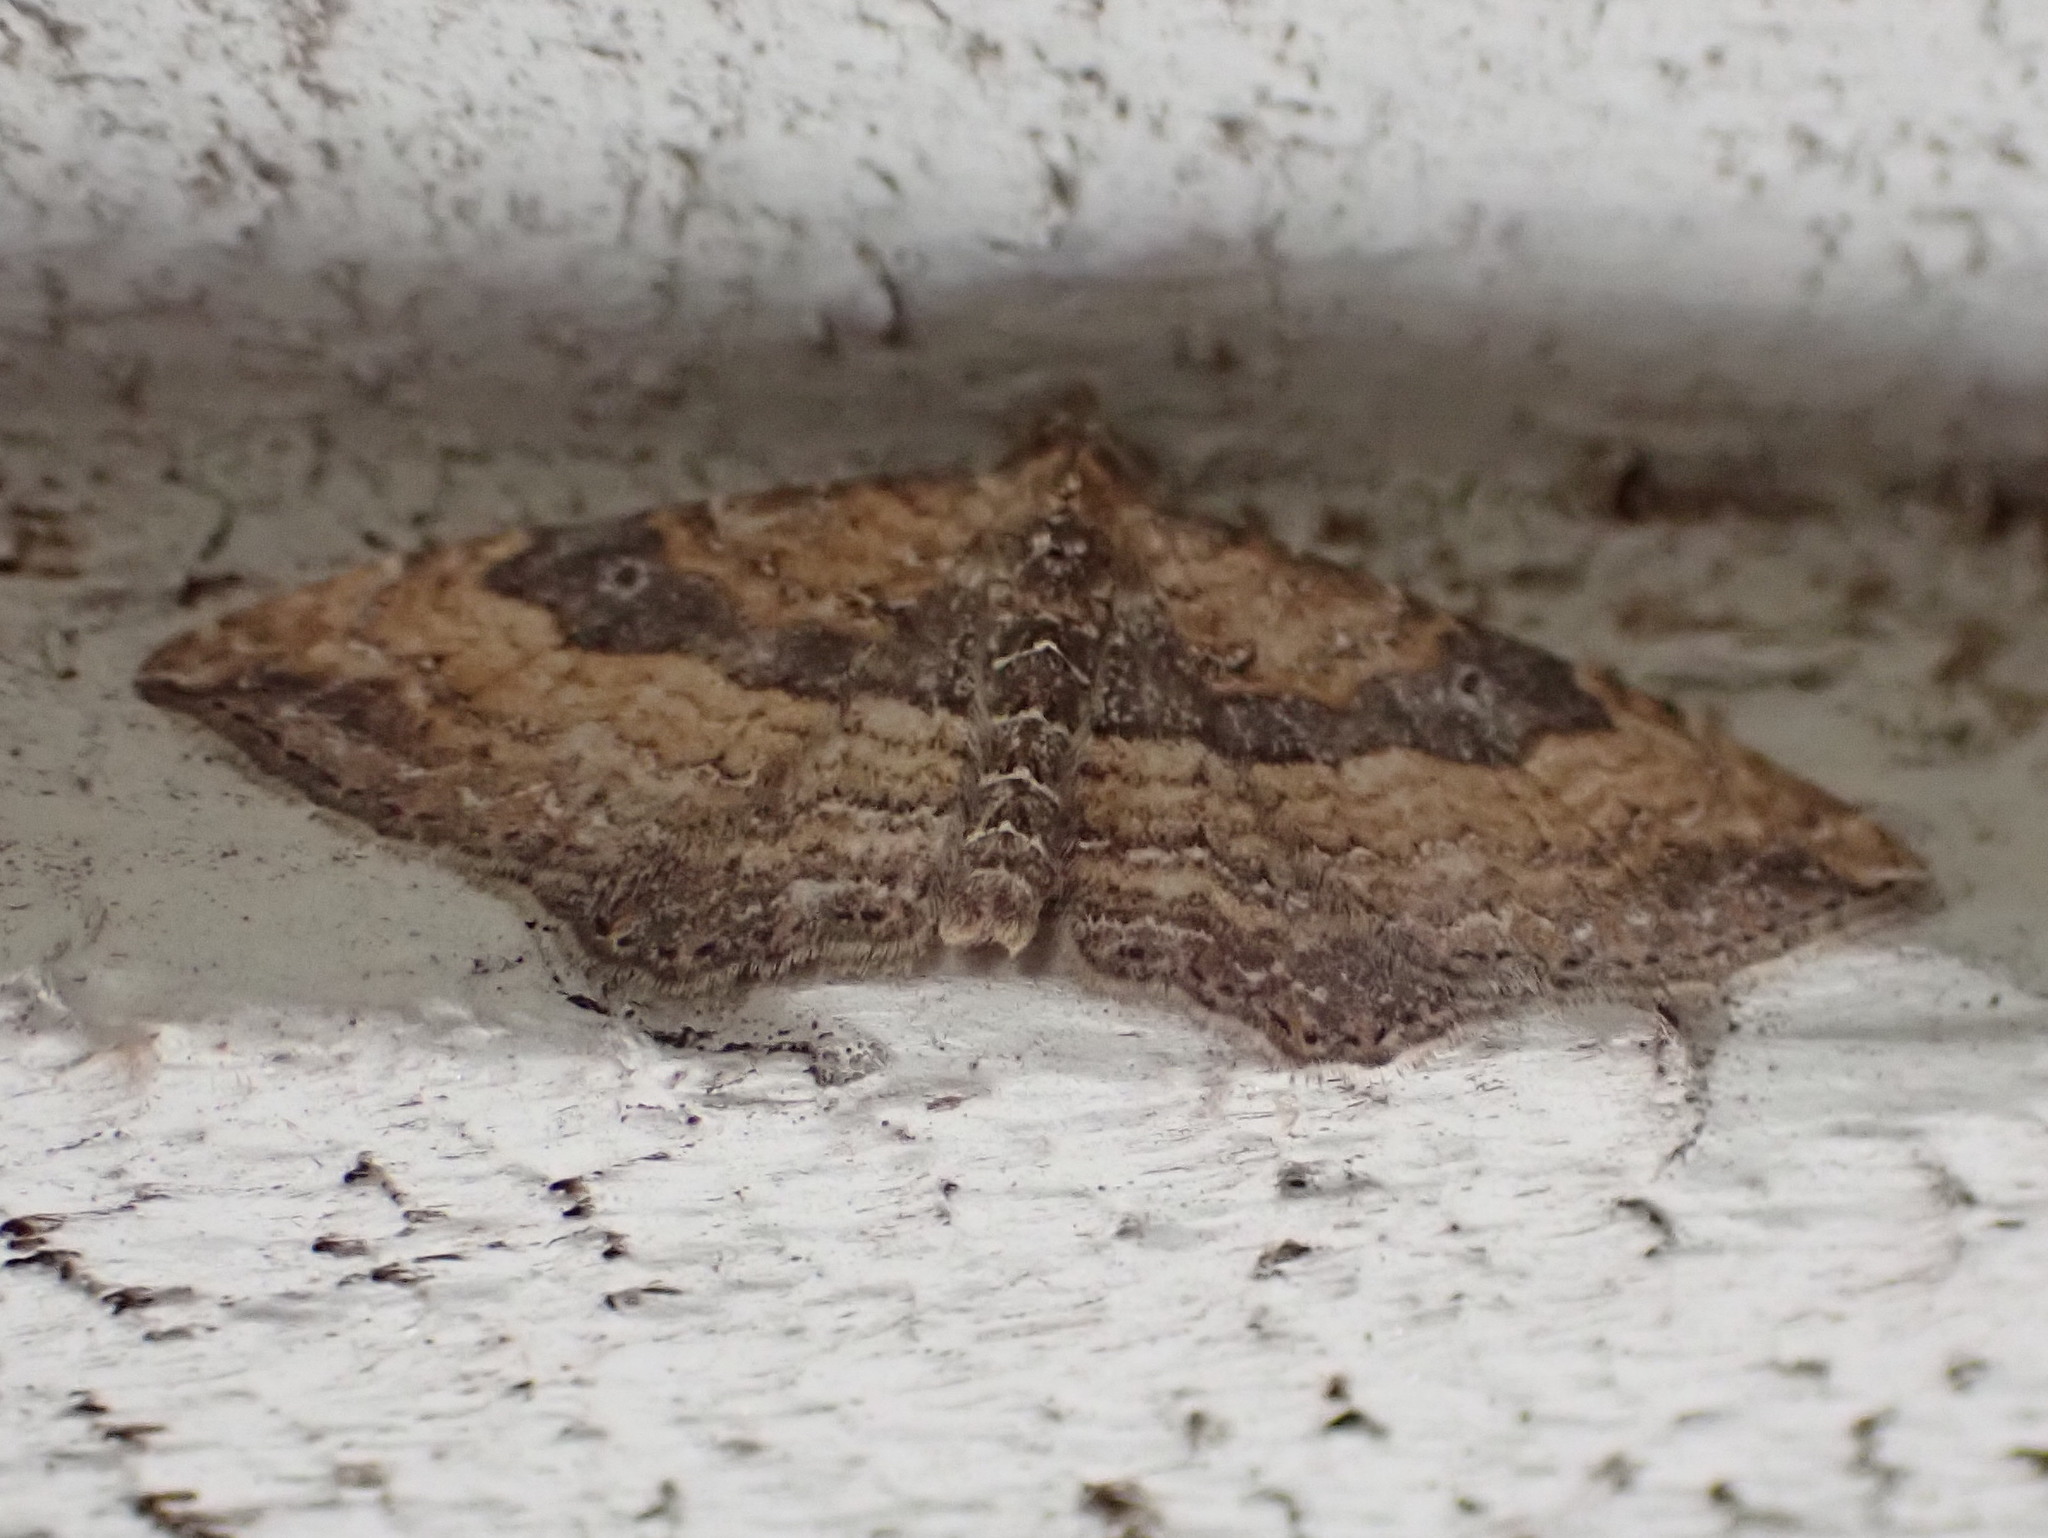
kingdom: Animalia
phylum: Arthropoda
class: Insecta
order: Lepidoptera
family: Geometridae
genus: Orthonama
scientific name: Orthonama obstipata
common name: The gem
